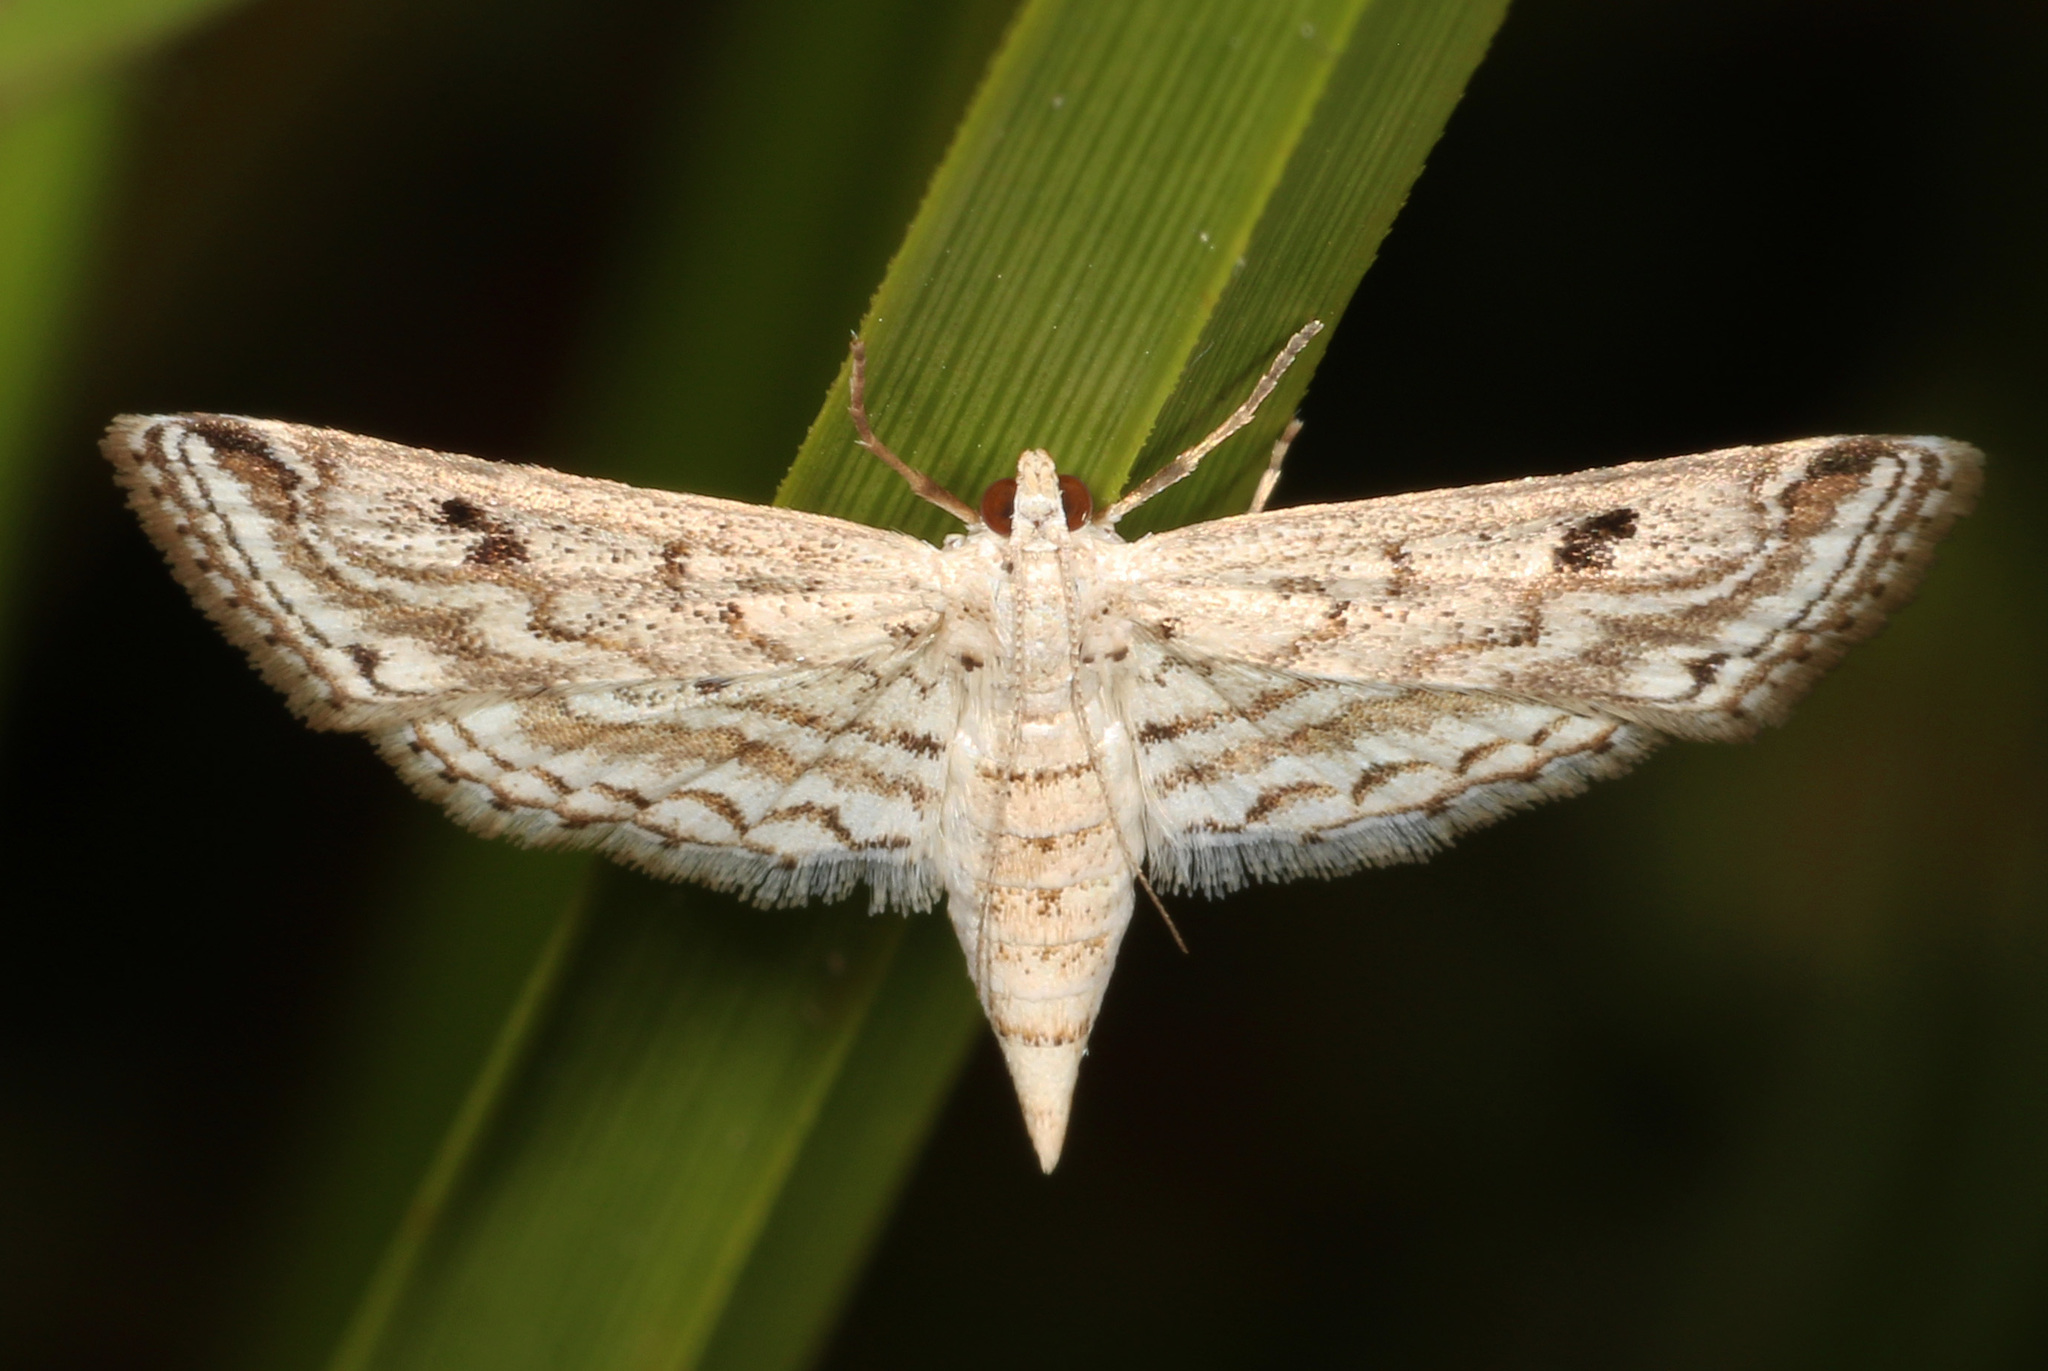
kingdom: Animalia
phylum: Arthropoda
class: Insecta
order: Lepidoptera
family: Crambidae
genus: Parapoynx
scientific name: Parapoynx allionealis
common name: Bladderwort casemaker
